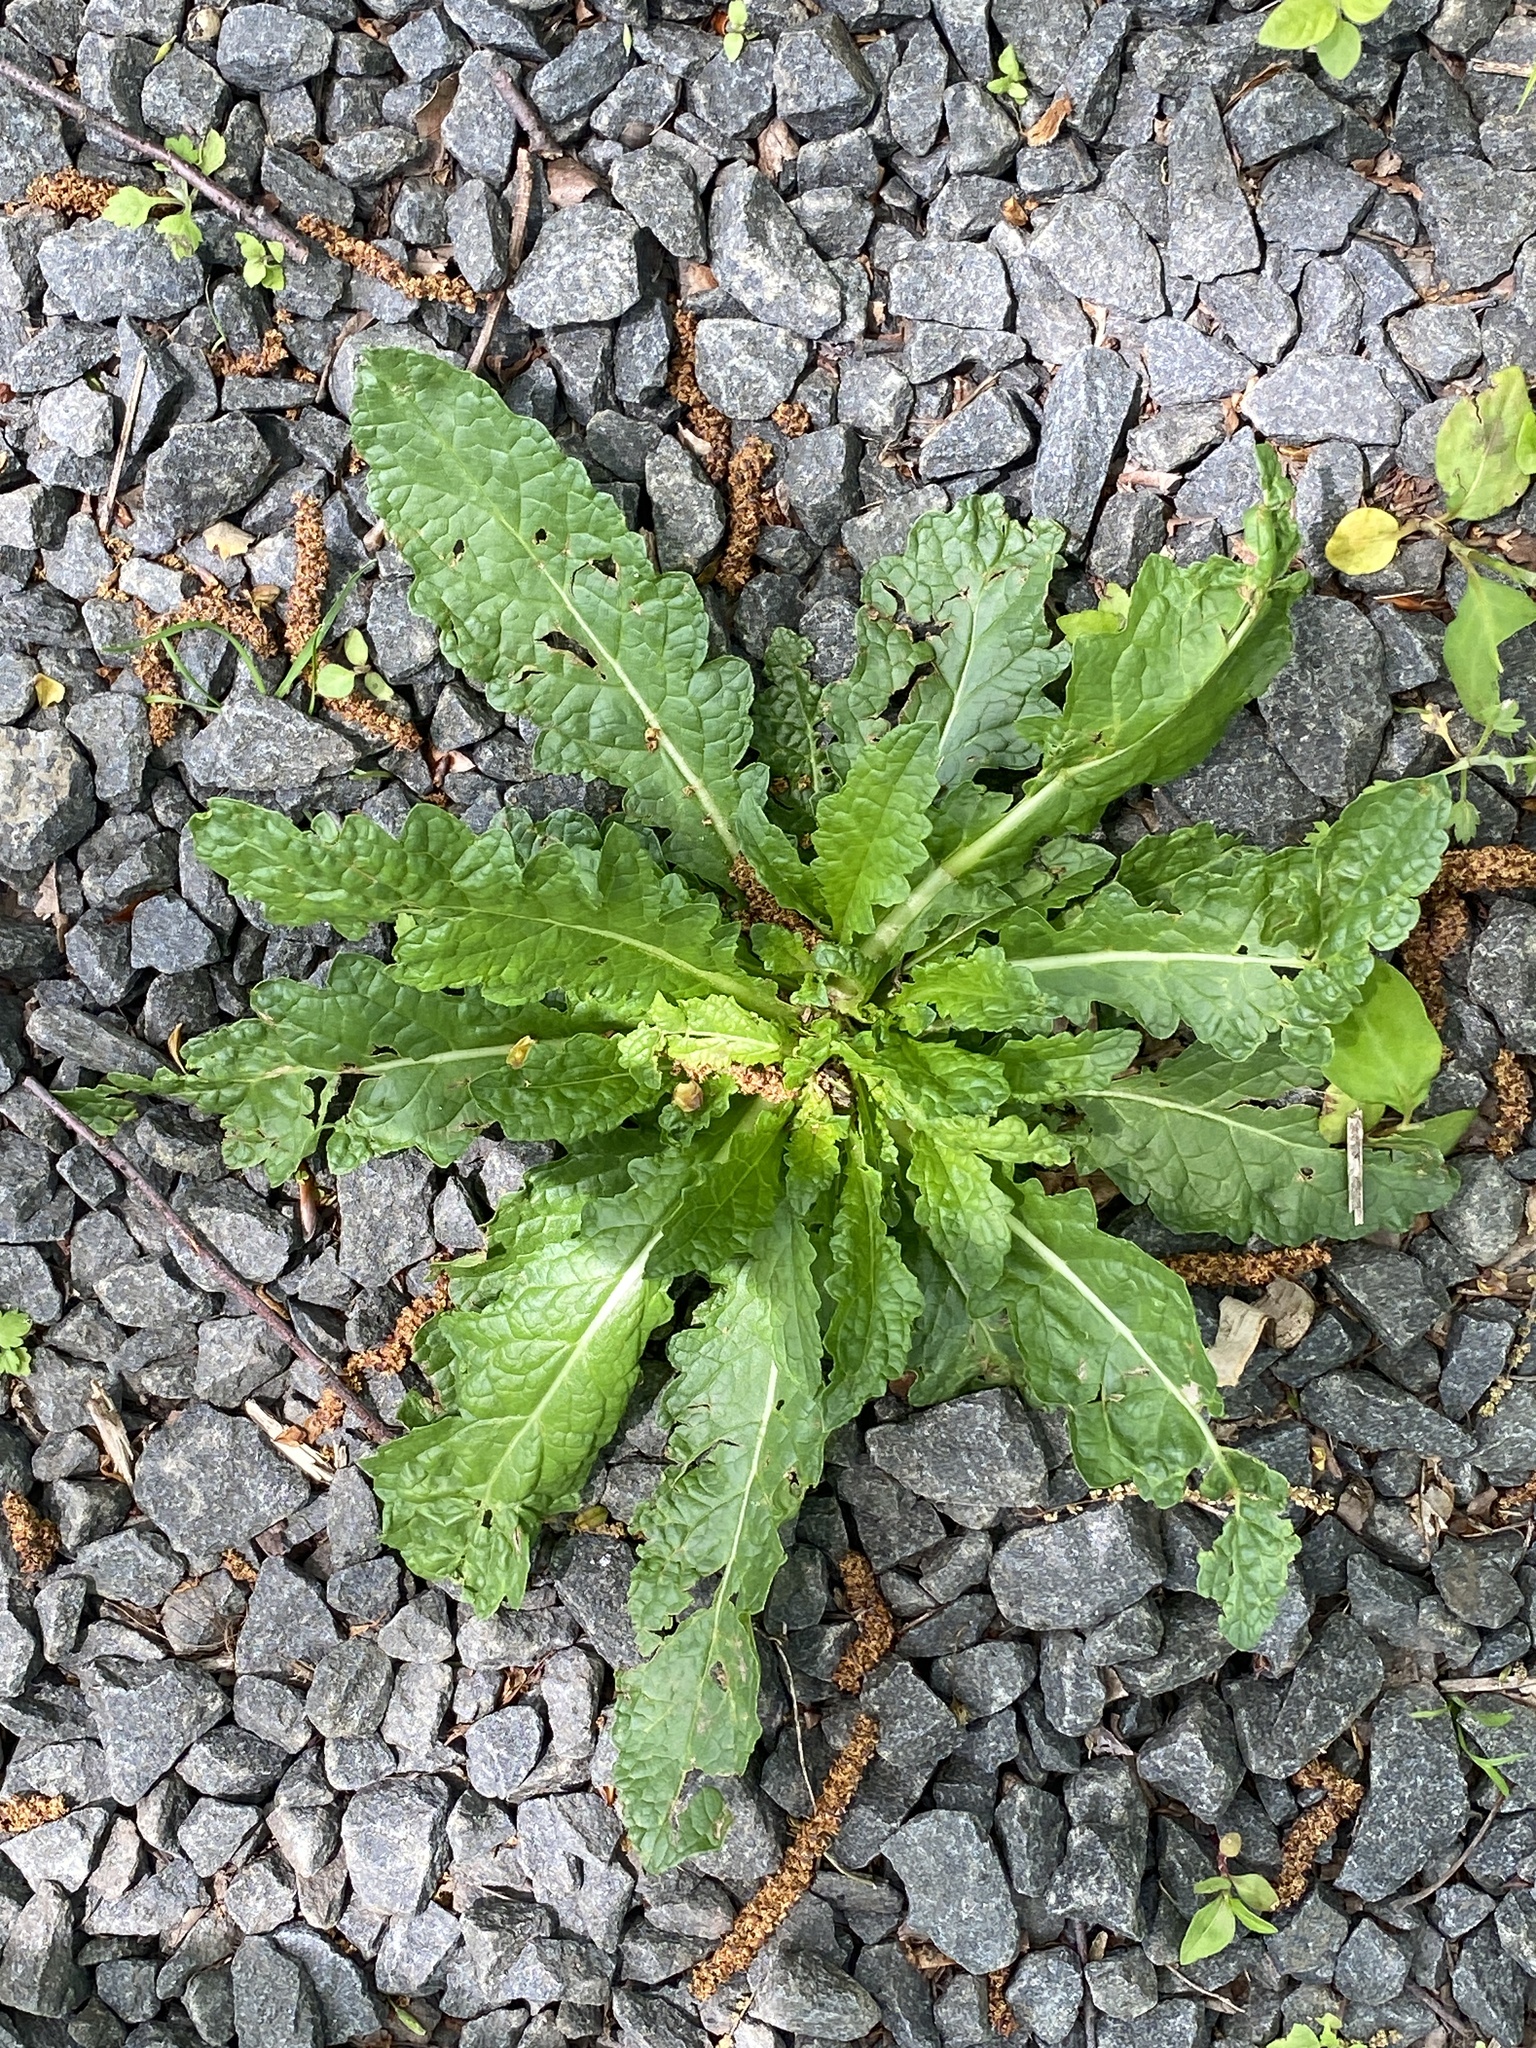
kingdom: Plantae
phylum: Tracheophyta
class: Magnoliopsida
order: Lamiales
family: Scrophulariaceae
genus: Verbascum
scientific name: Verbascum blattaria
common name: Moth mullein
